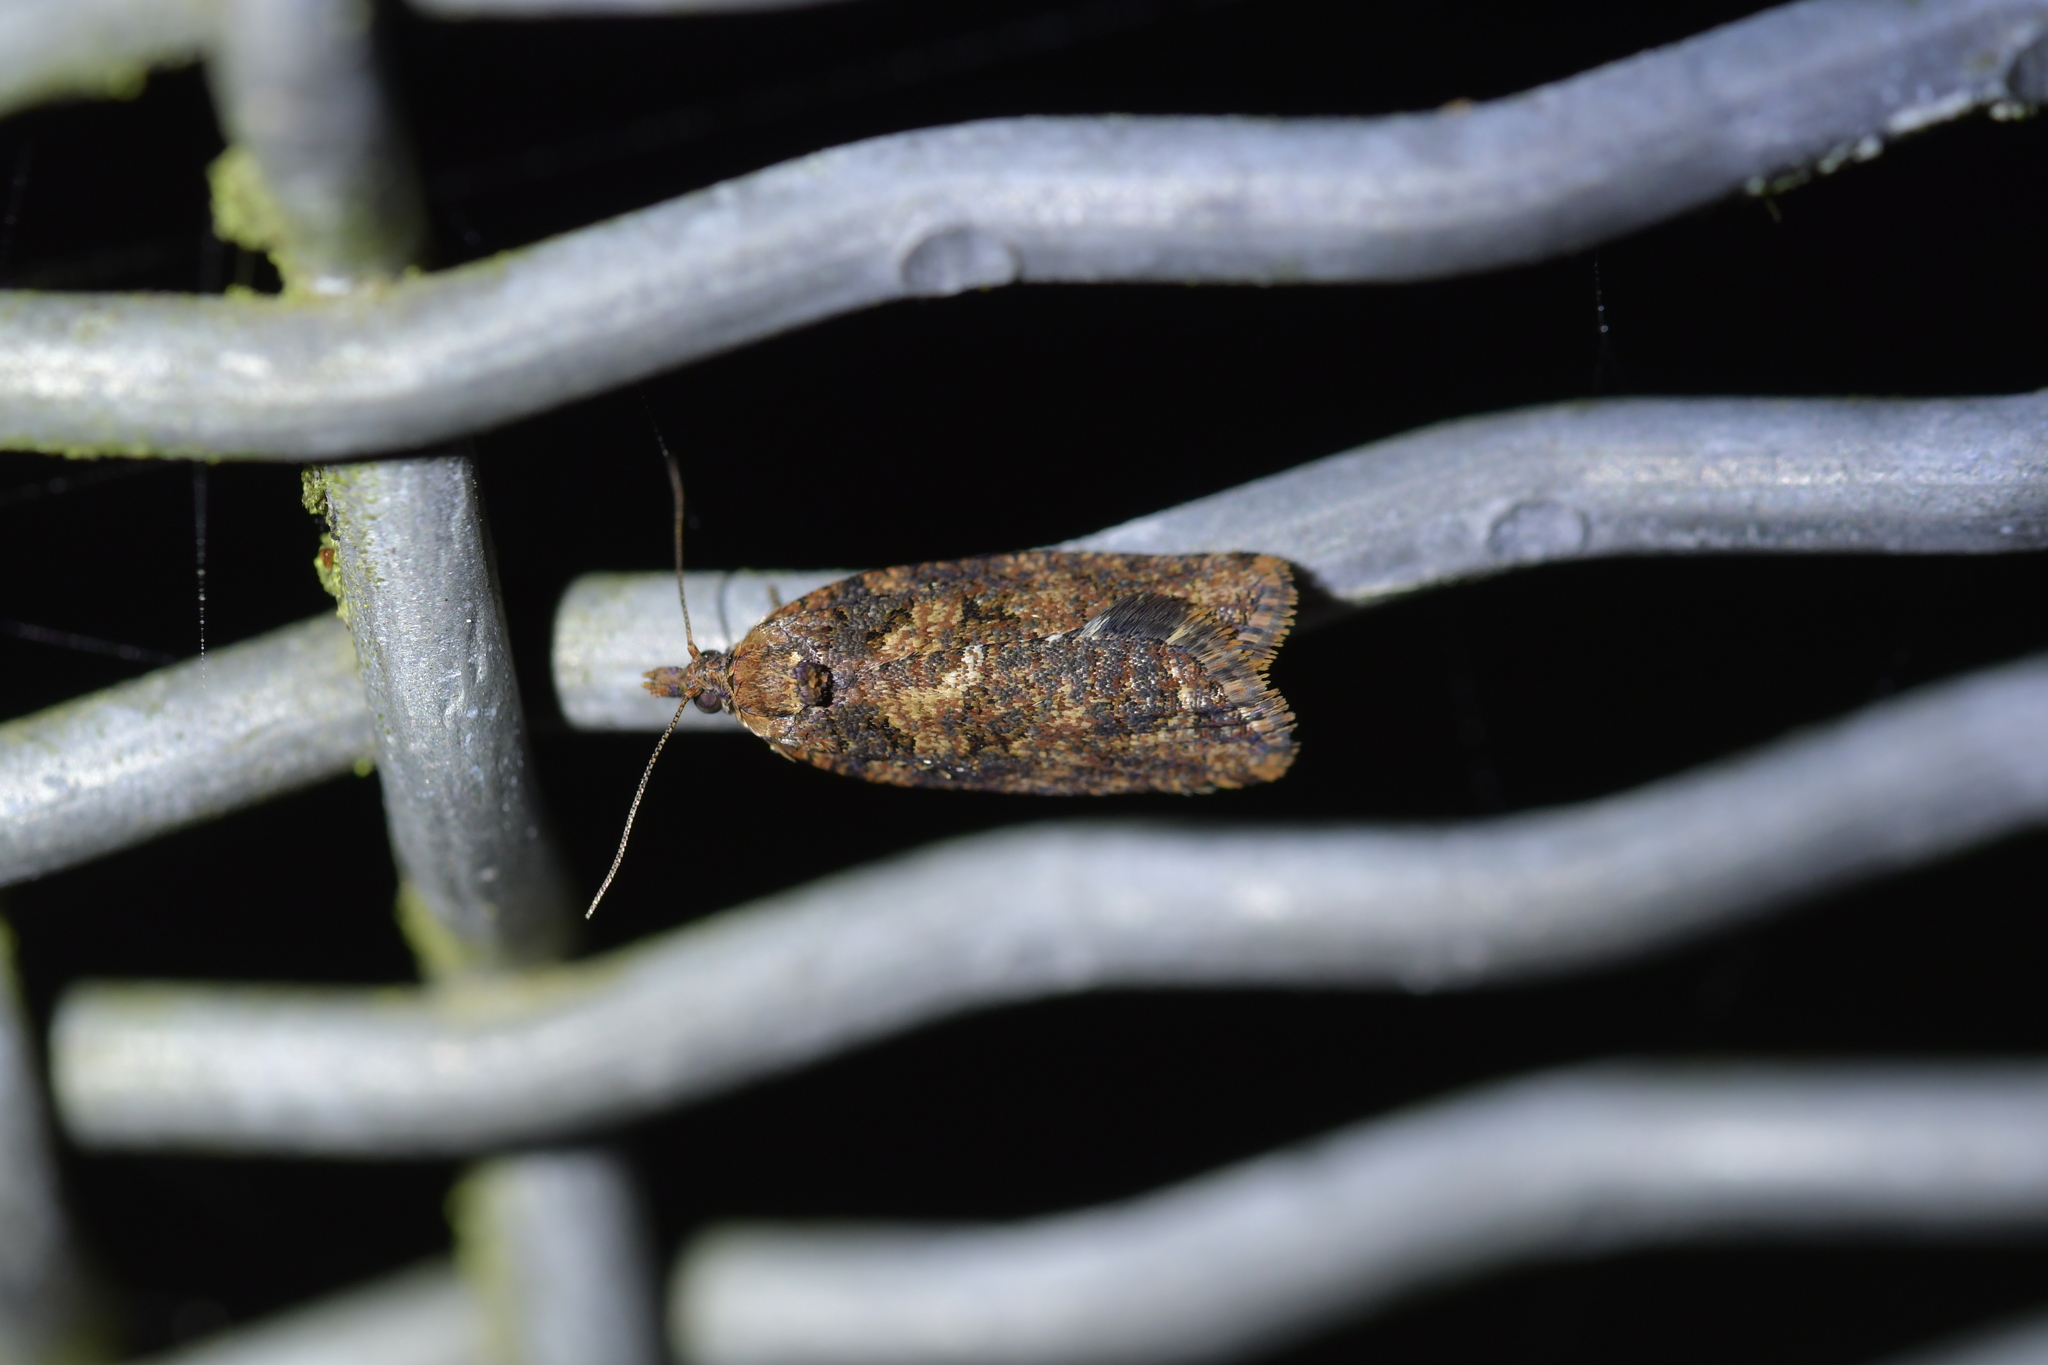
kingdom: Animalia
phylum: Arthropoda
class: Insecta
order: Lepidoptera
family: Tortricidae
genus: Capua
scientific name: Capua intractana
